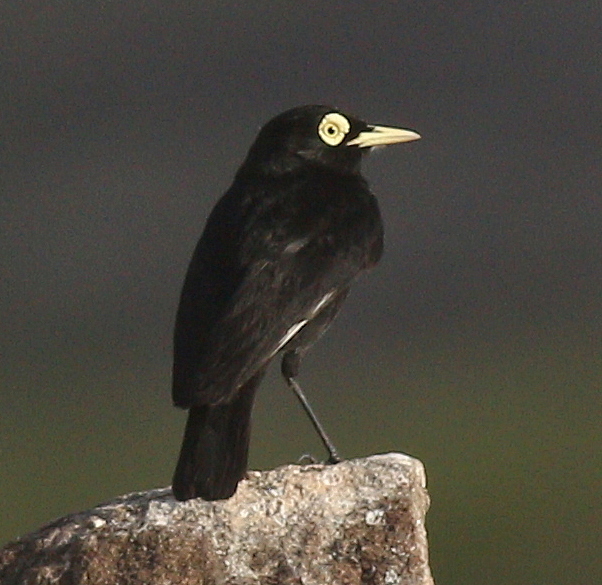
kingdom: Animalia
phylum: Chordata
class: Aves
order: Passeriformes
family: Tyrannidae
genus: Hymenops
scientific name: Hymenops perspicillatus
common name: Spectacled tyrant
